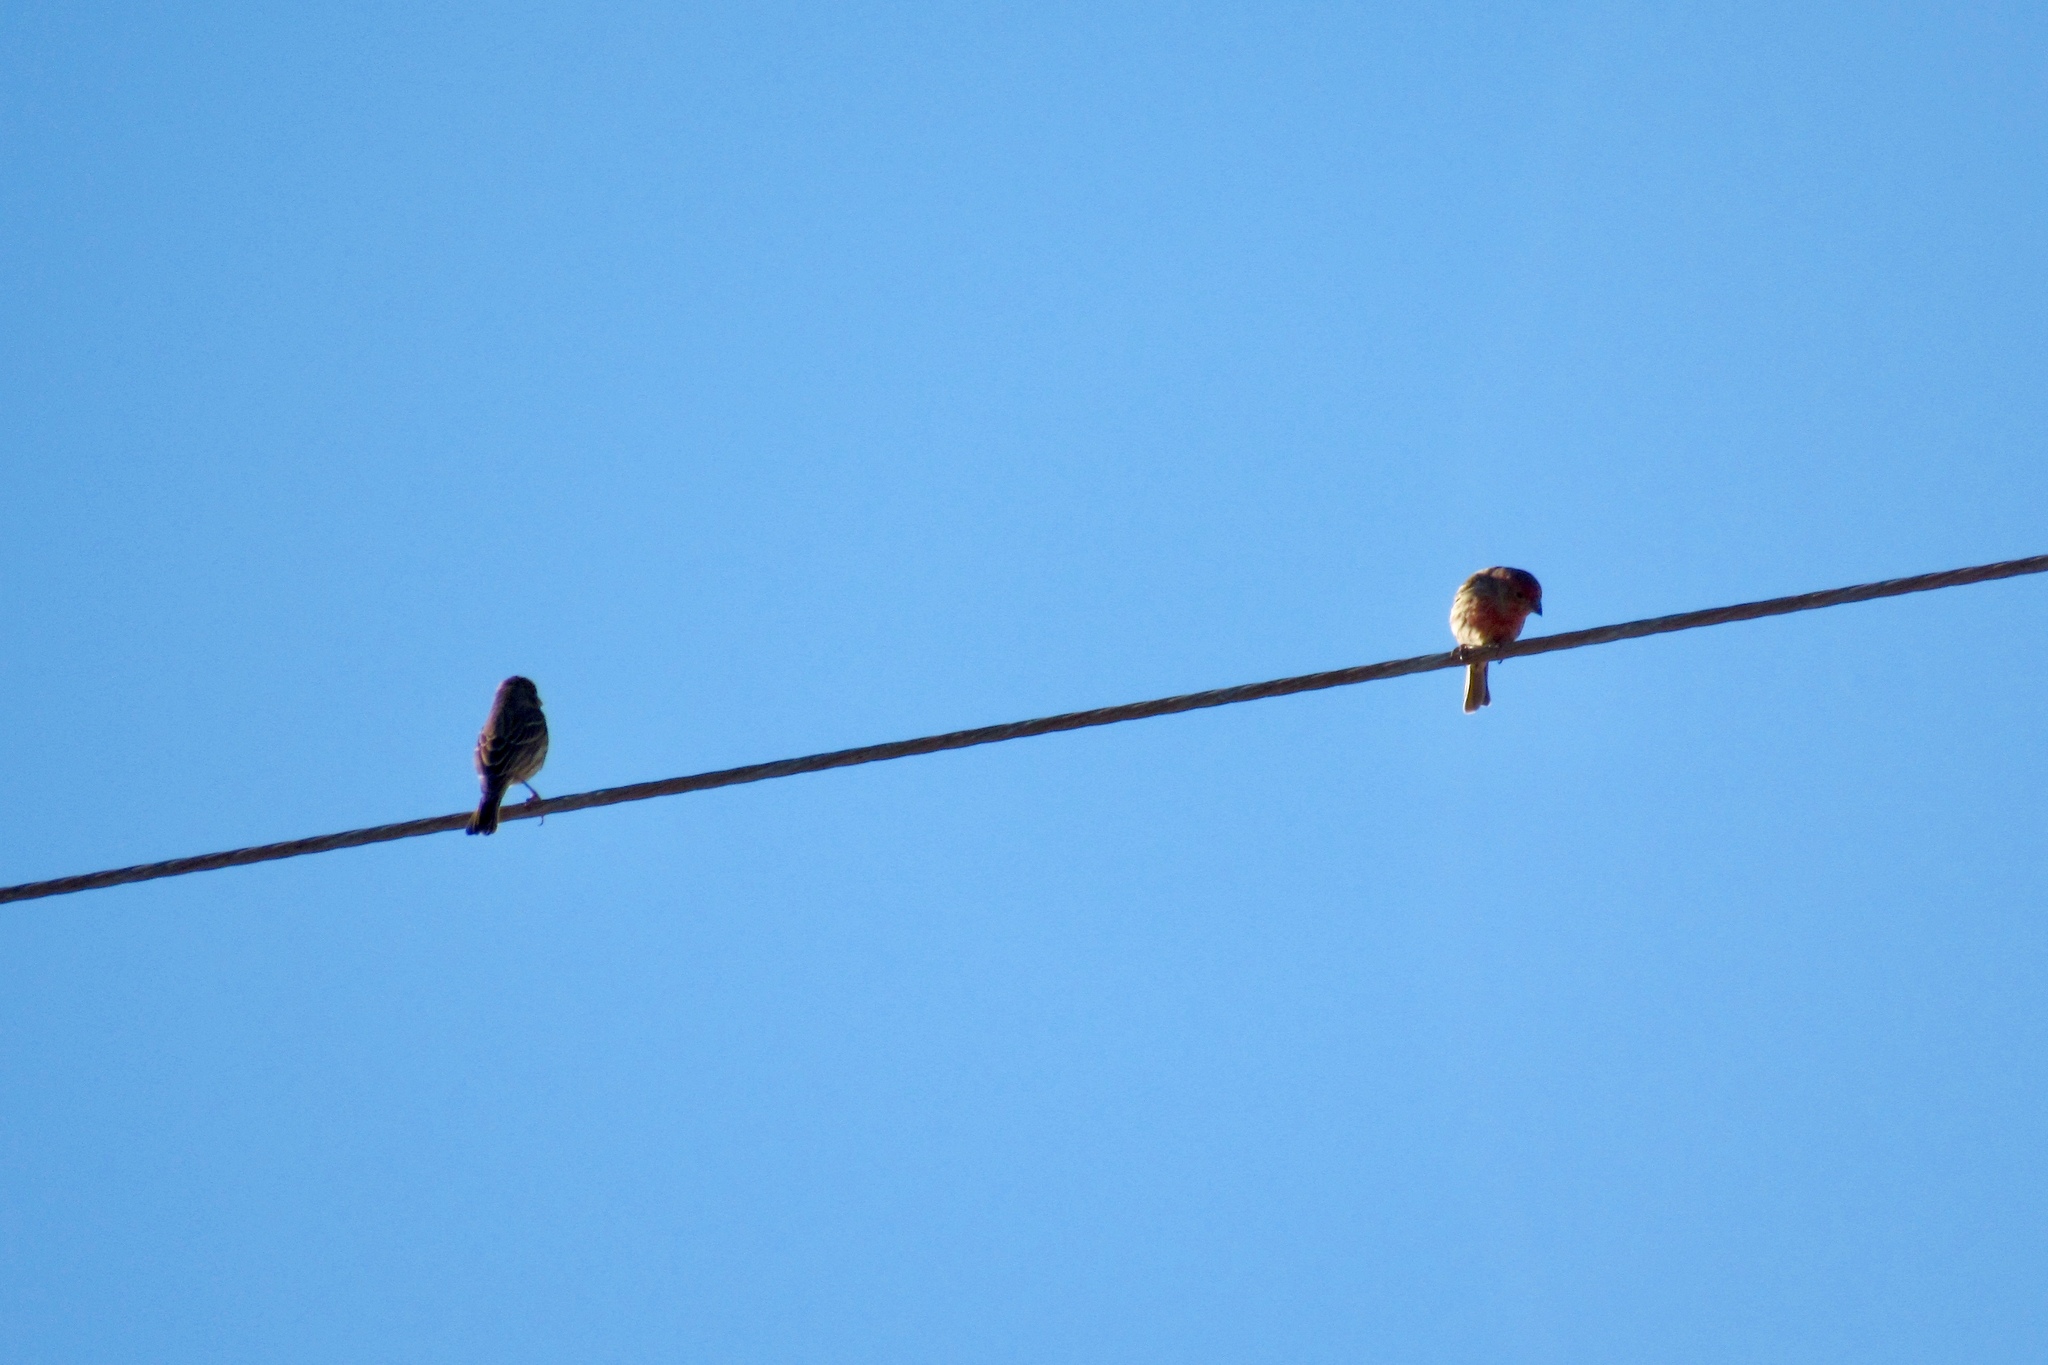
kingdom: Animalia
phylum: Chordata
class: Aves
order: Passeriformes
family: Fringillidae
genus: Haemorhous
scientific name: Haemorhous mexicanus
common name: House finch
